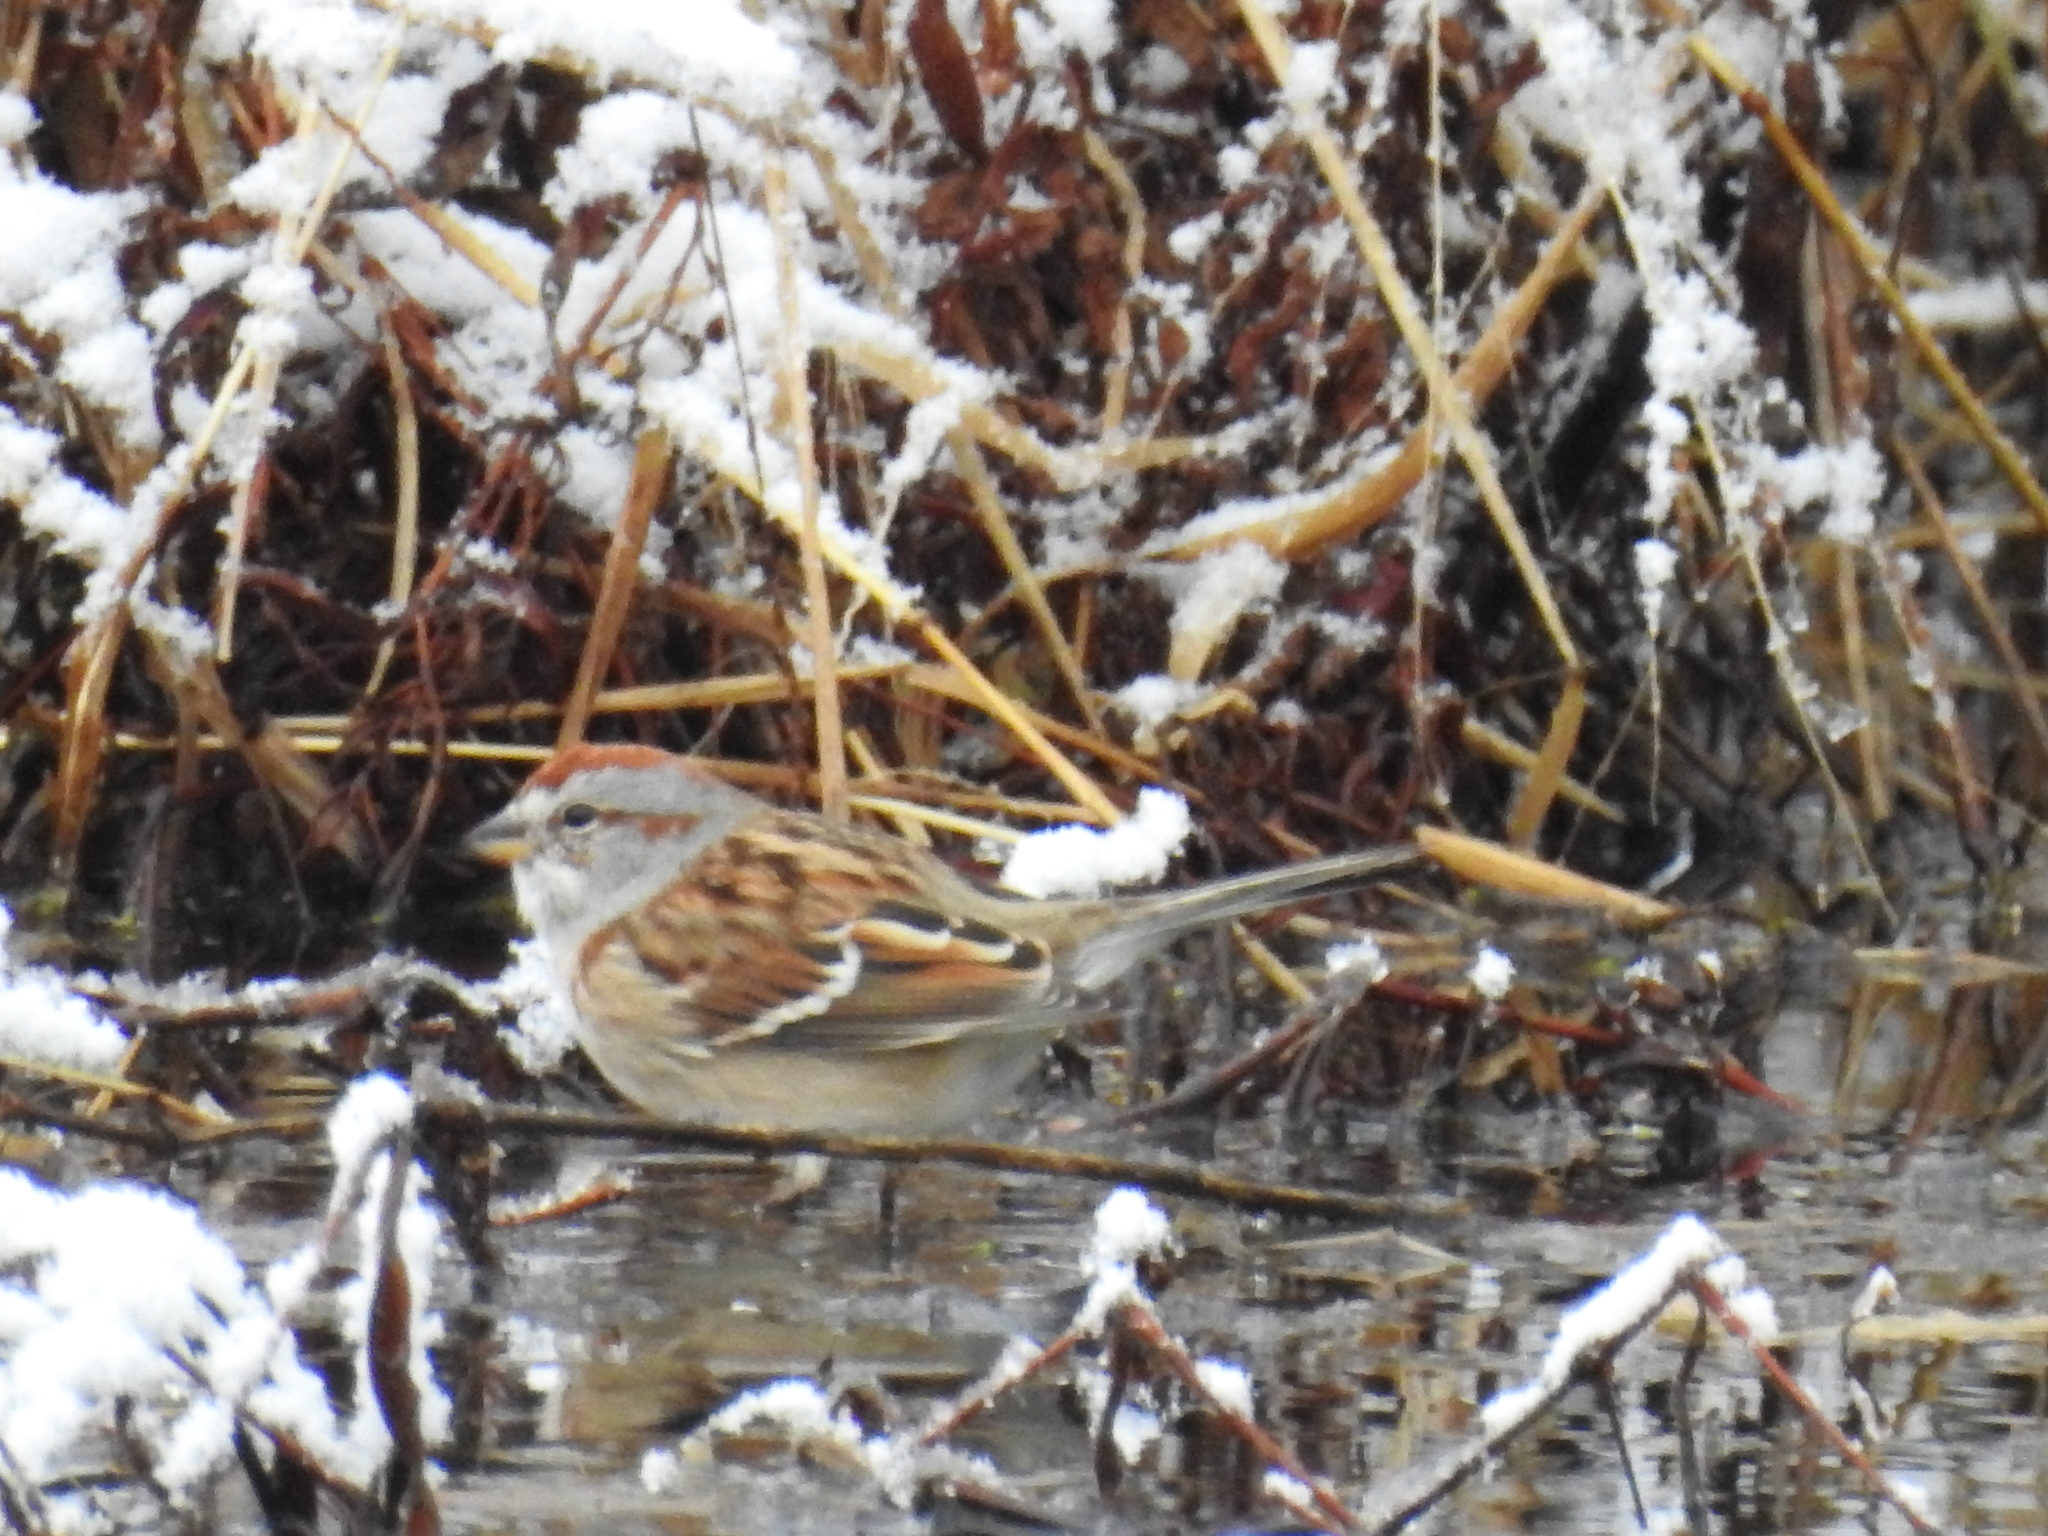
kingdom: Animalia
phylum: Chordata
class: Aves
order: Passeriformes
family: Passerellidae
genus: Spizelloides
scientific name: Spizelloides arborea
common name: American tree sparrow
